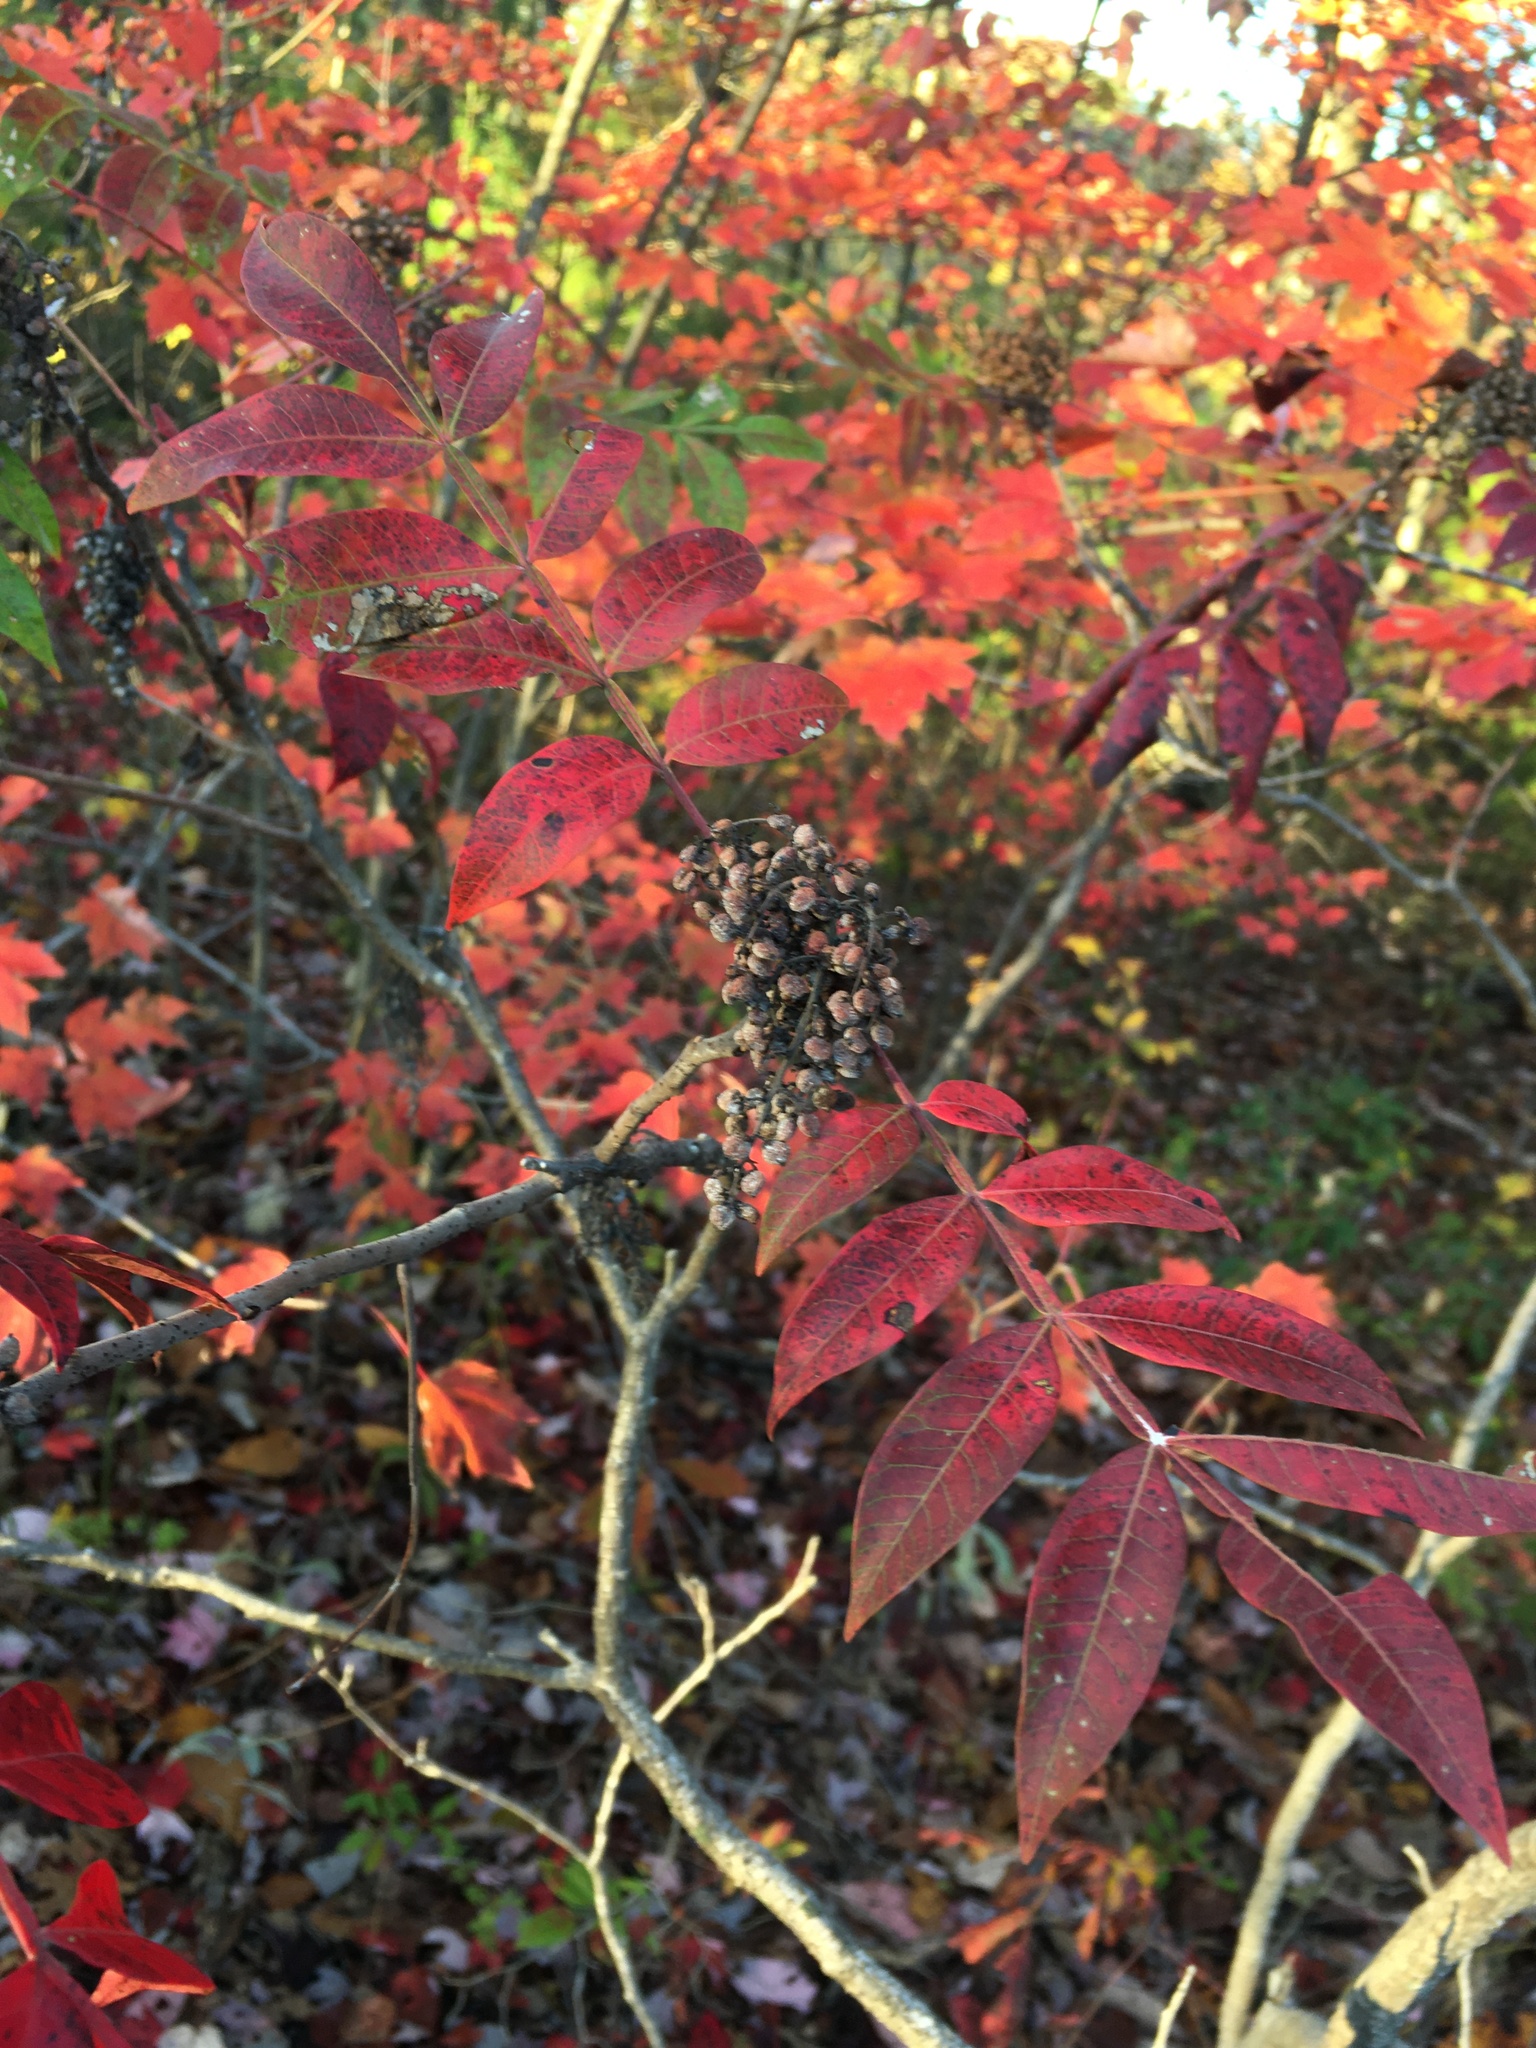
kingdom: Plantae
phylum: Tracheophyta
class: Magnoliopsida
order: Sapindales
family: Anacardiaceae
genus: Rhus
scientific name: Rhus copallina
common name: Shining sumac
